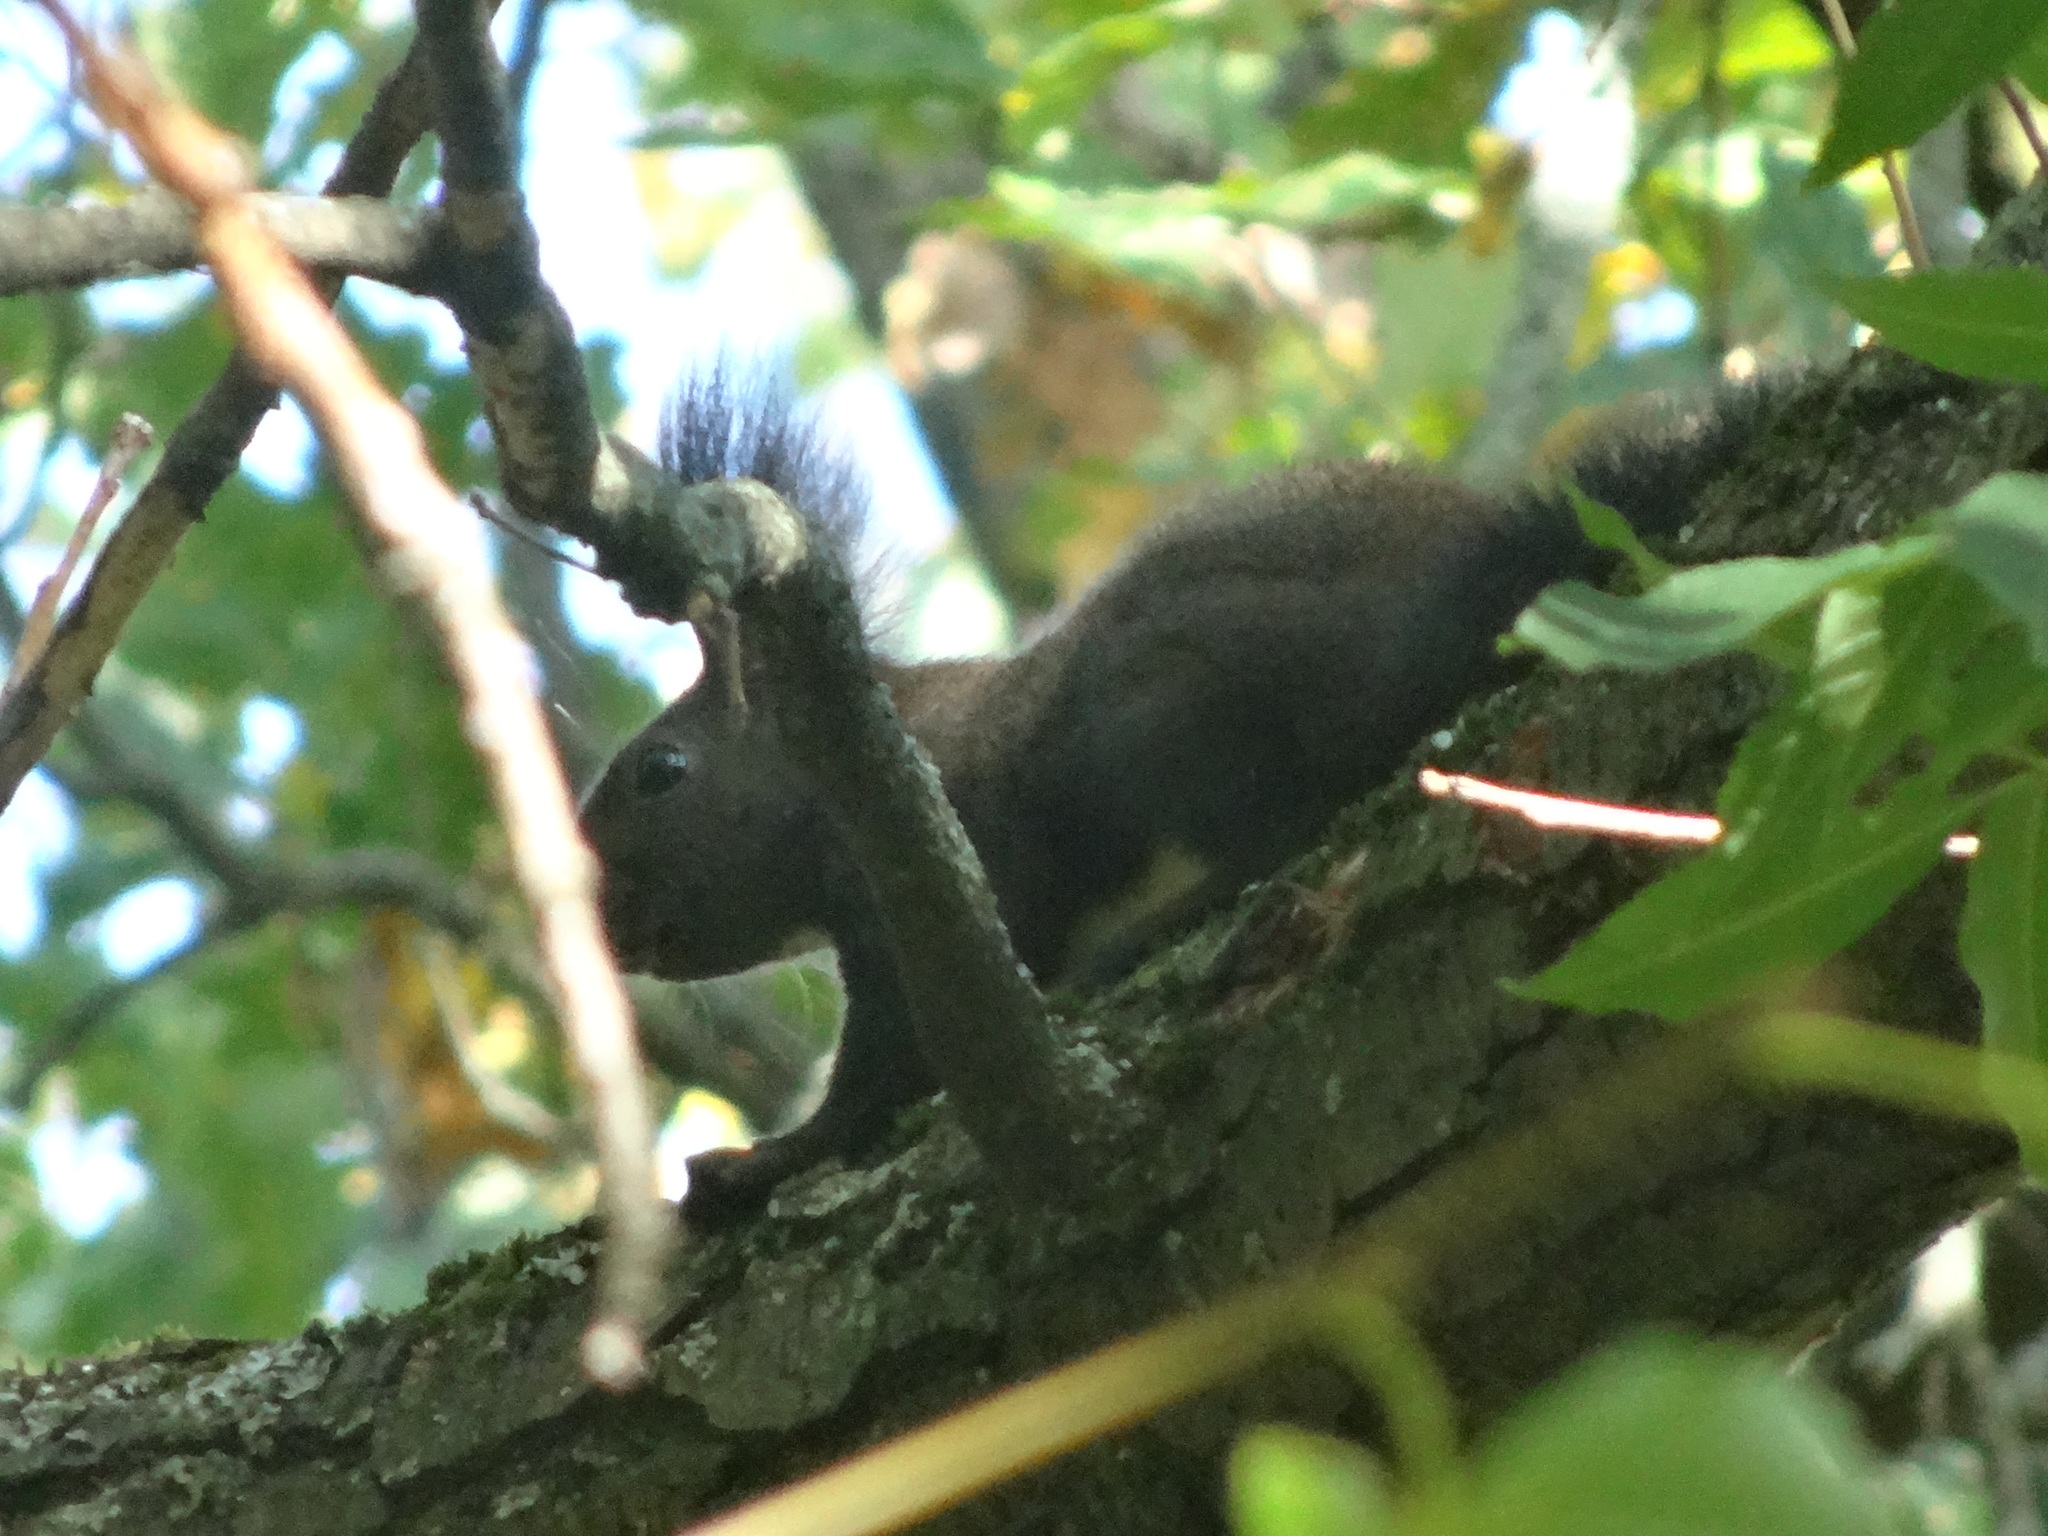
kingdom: Animalia
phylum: Chordata
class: Mammalia
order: Rodentia
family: Sciuridae
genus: Sciurus
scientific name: Sciurus vulgaris
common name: Eurasian red squirrel
